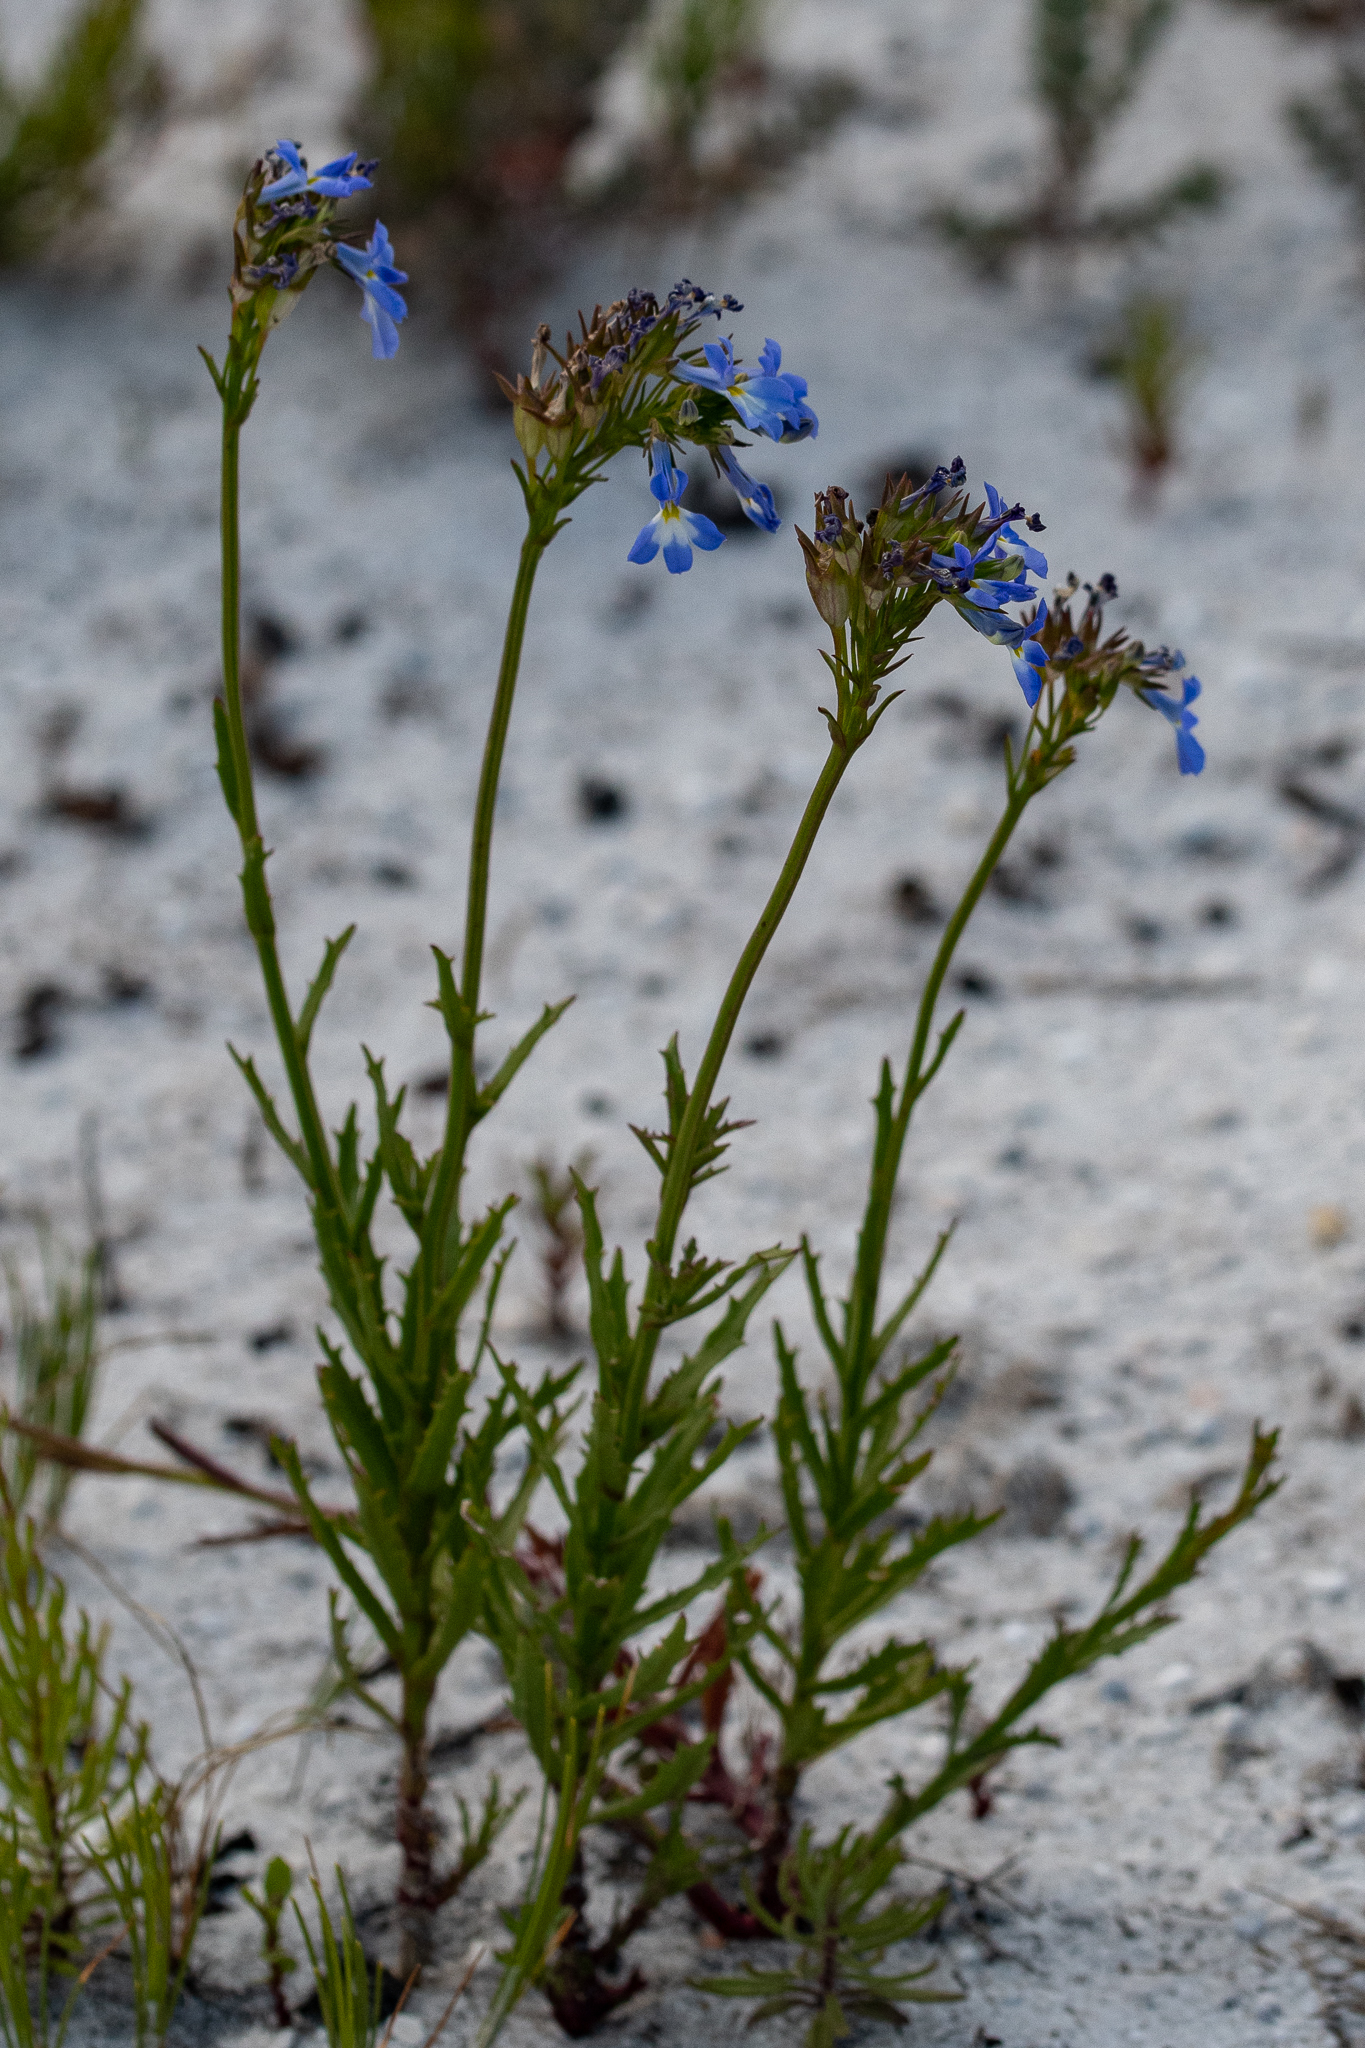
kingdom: Plantae
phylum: Tracheophyta
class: Magnoliopsida
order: Asterales
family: Campanulaceae
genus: Lobelia
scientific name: Lobelia comosa
